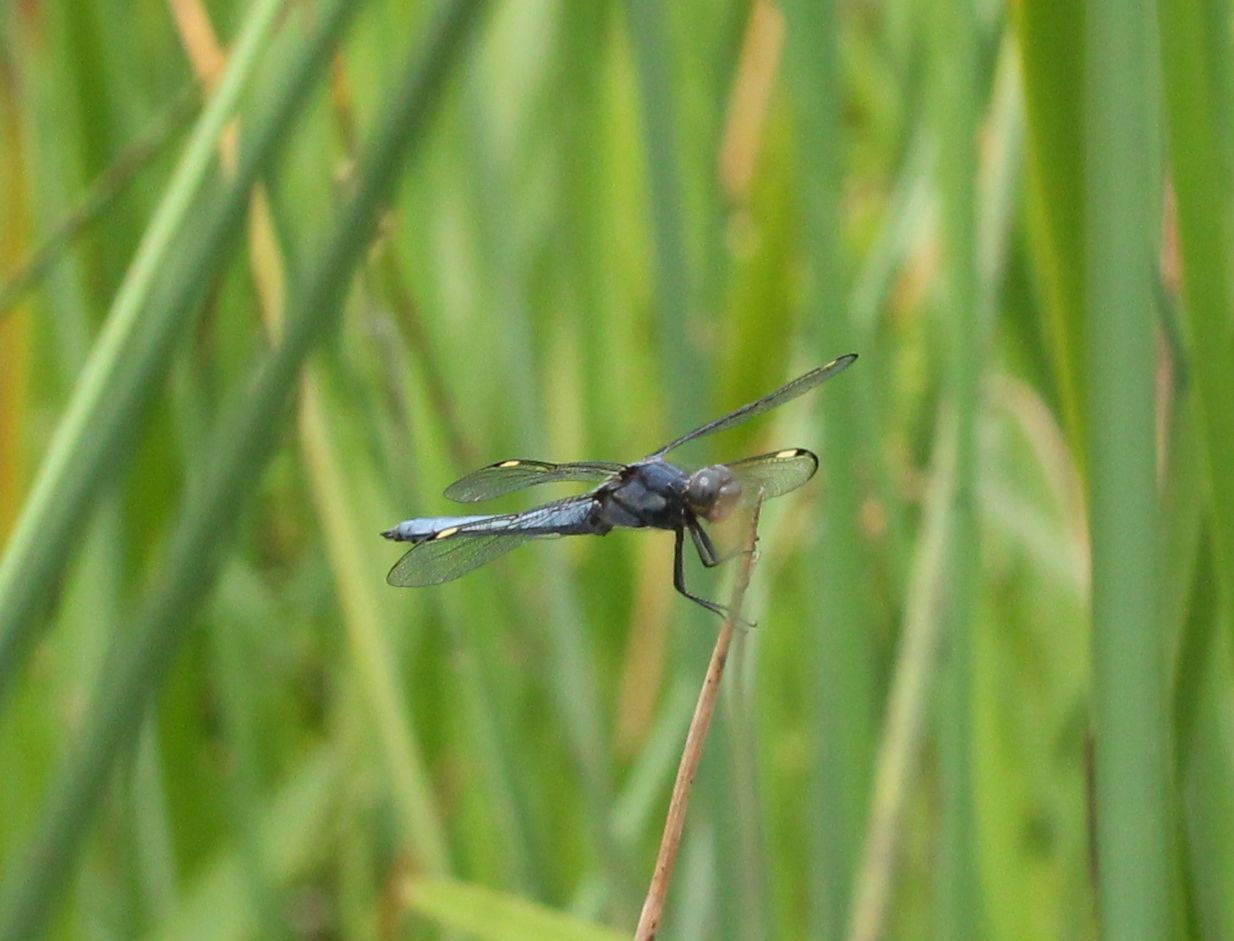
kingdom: Animalia
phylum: Arthropoda
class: Insecta
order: Odonata
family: Libellulidae
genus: Libellula
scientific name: Libellula cyanea
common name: Spangled skimmer
